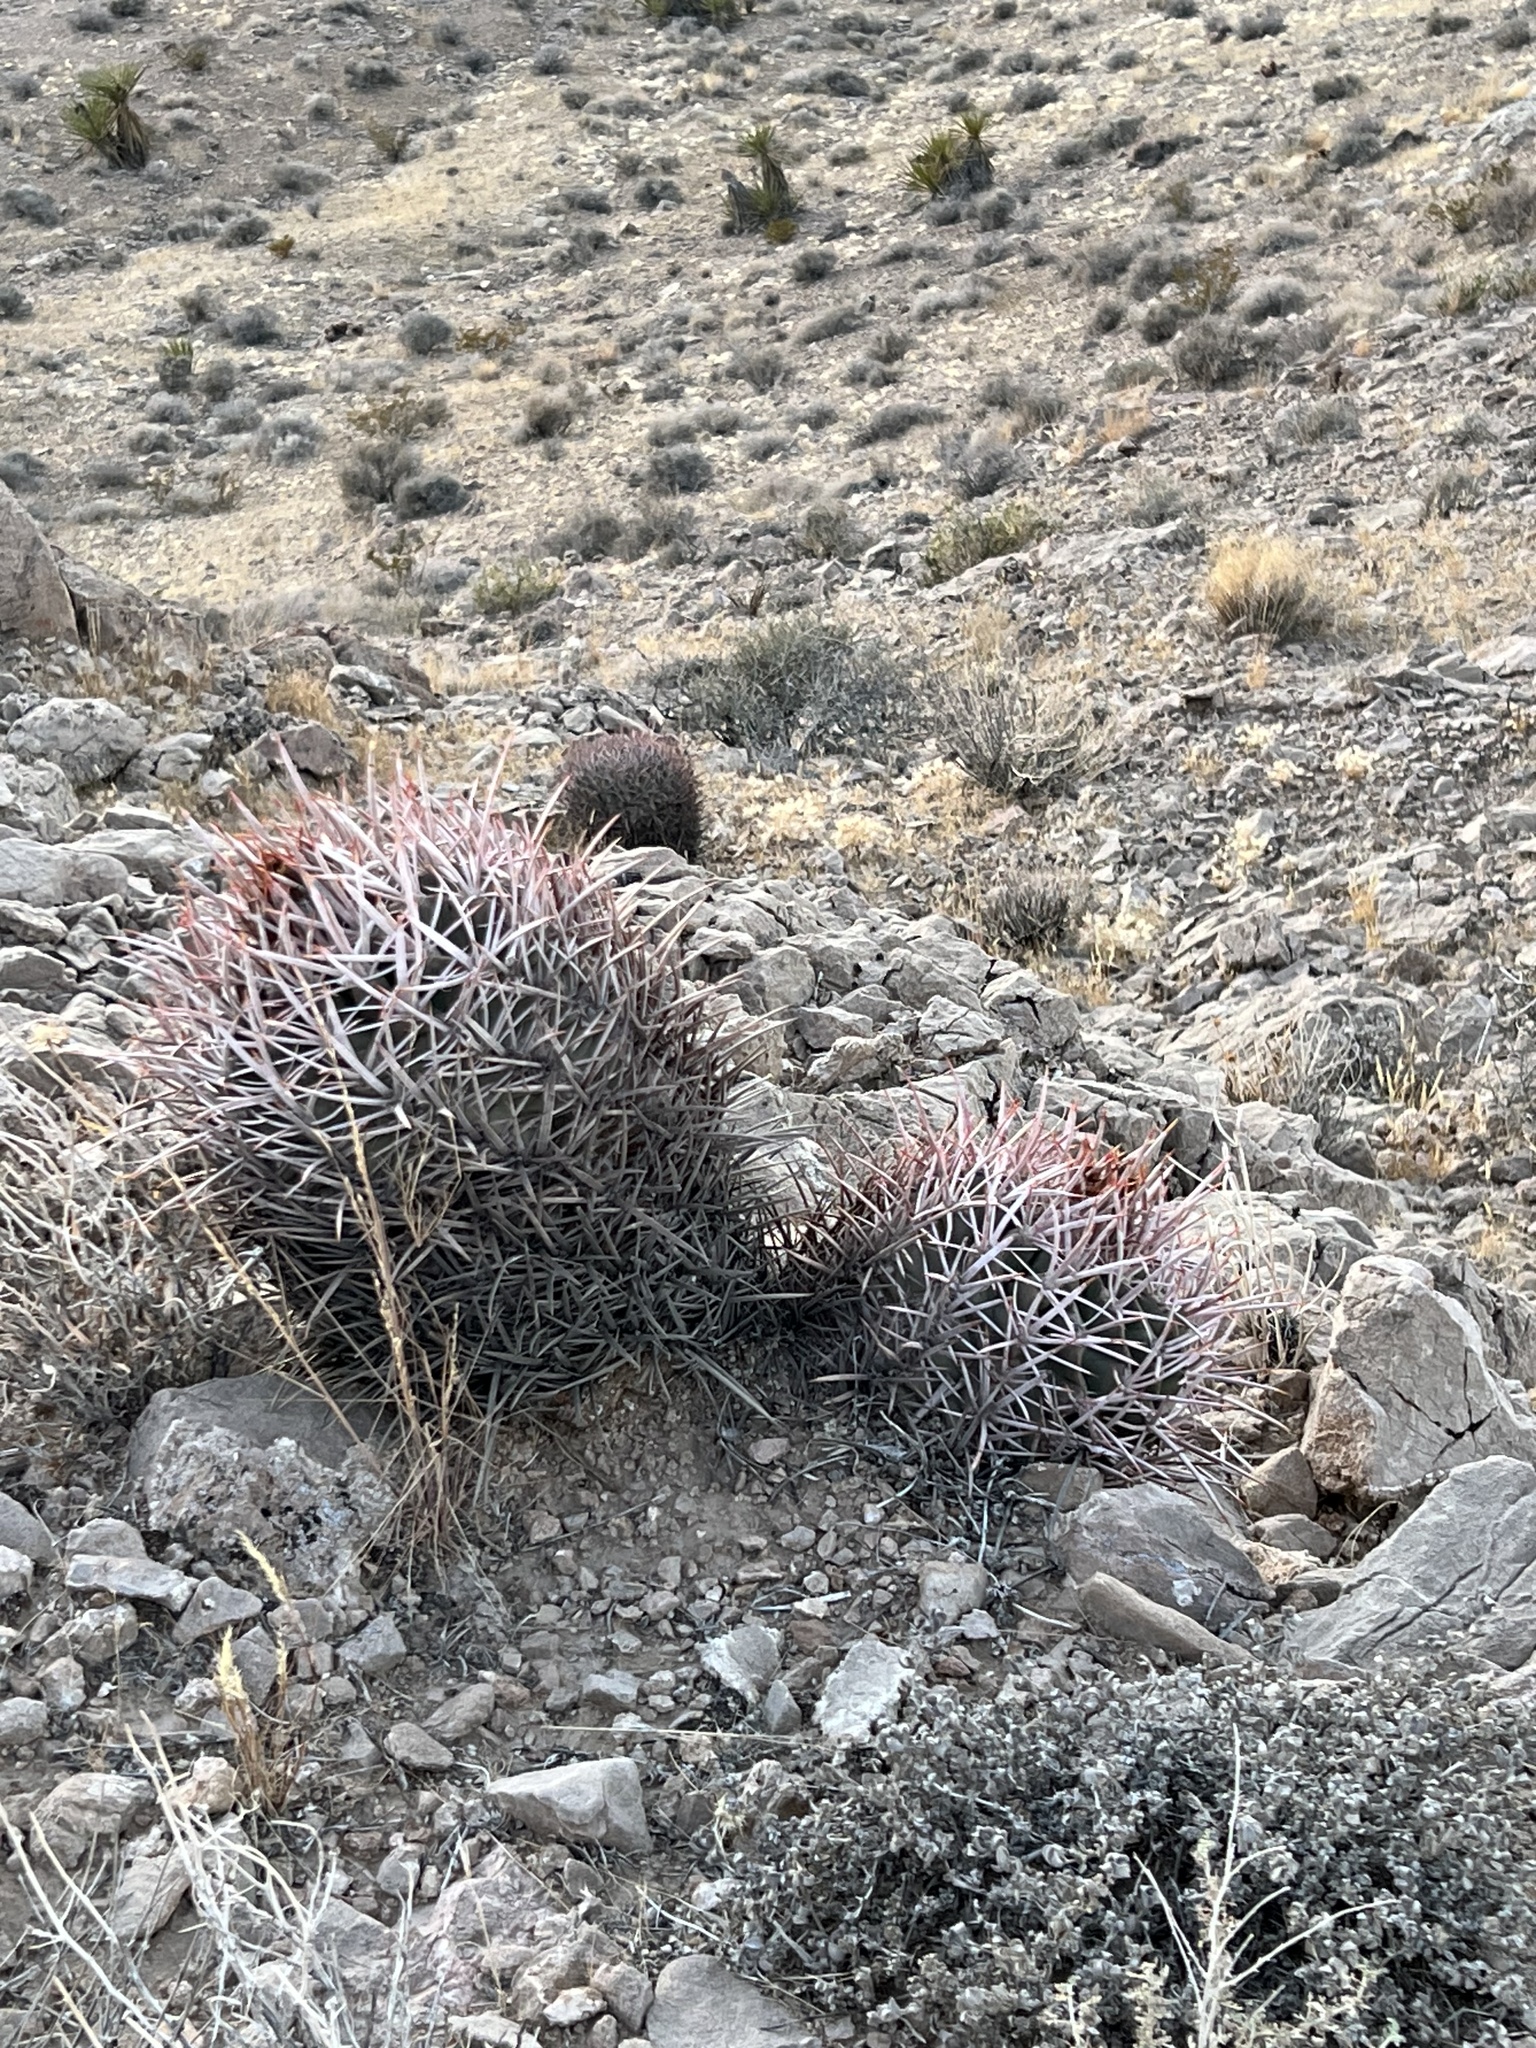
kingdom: Plantae
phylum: Tracheophyta
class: Magnoliopsida
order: Caryophyllales
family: Cactaceae
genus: Echinocactus
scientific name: Echinocactus polycephalus
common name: Cottontop cactus
